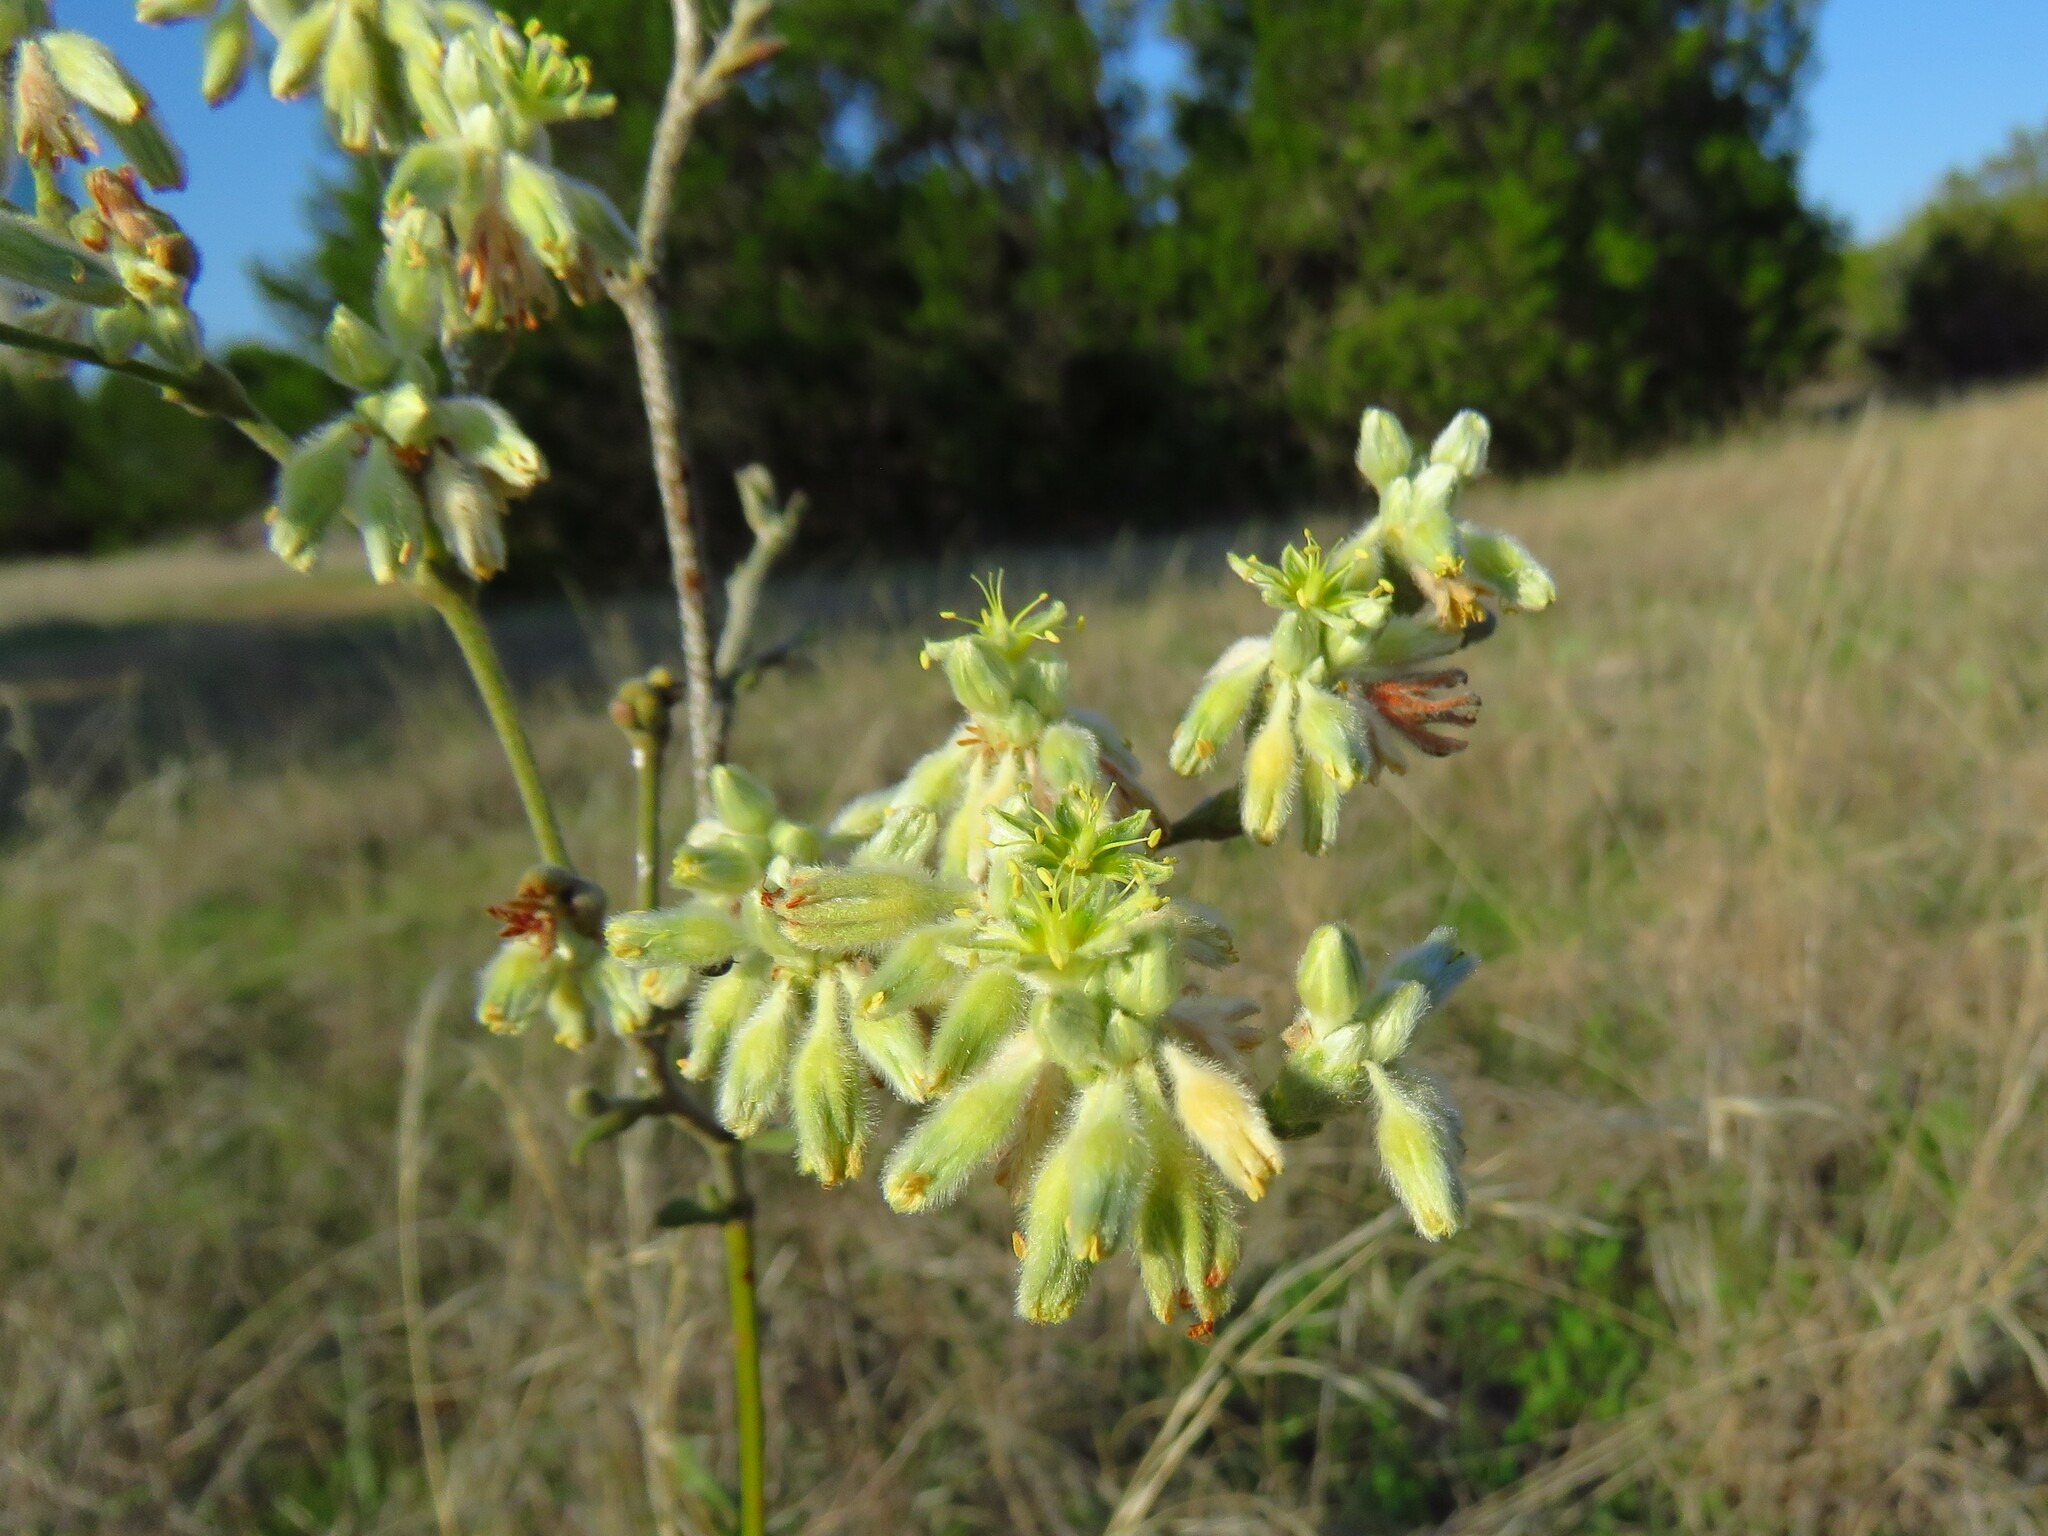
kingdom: Plantae
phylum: Tracheophyta
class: Magnoliopsida
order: Caryophyllales
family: Polygonaceae
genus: Eriogonum
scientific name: Eriogonum longifolium
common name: Longleaf wild buckwheat
